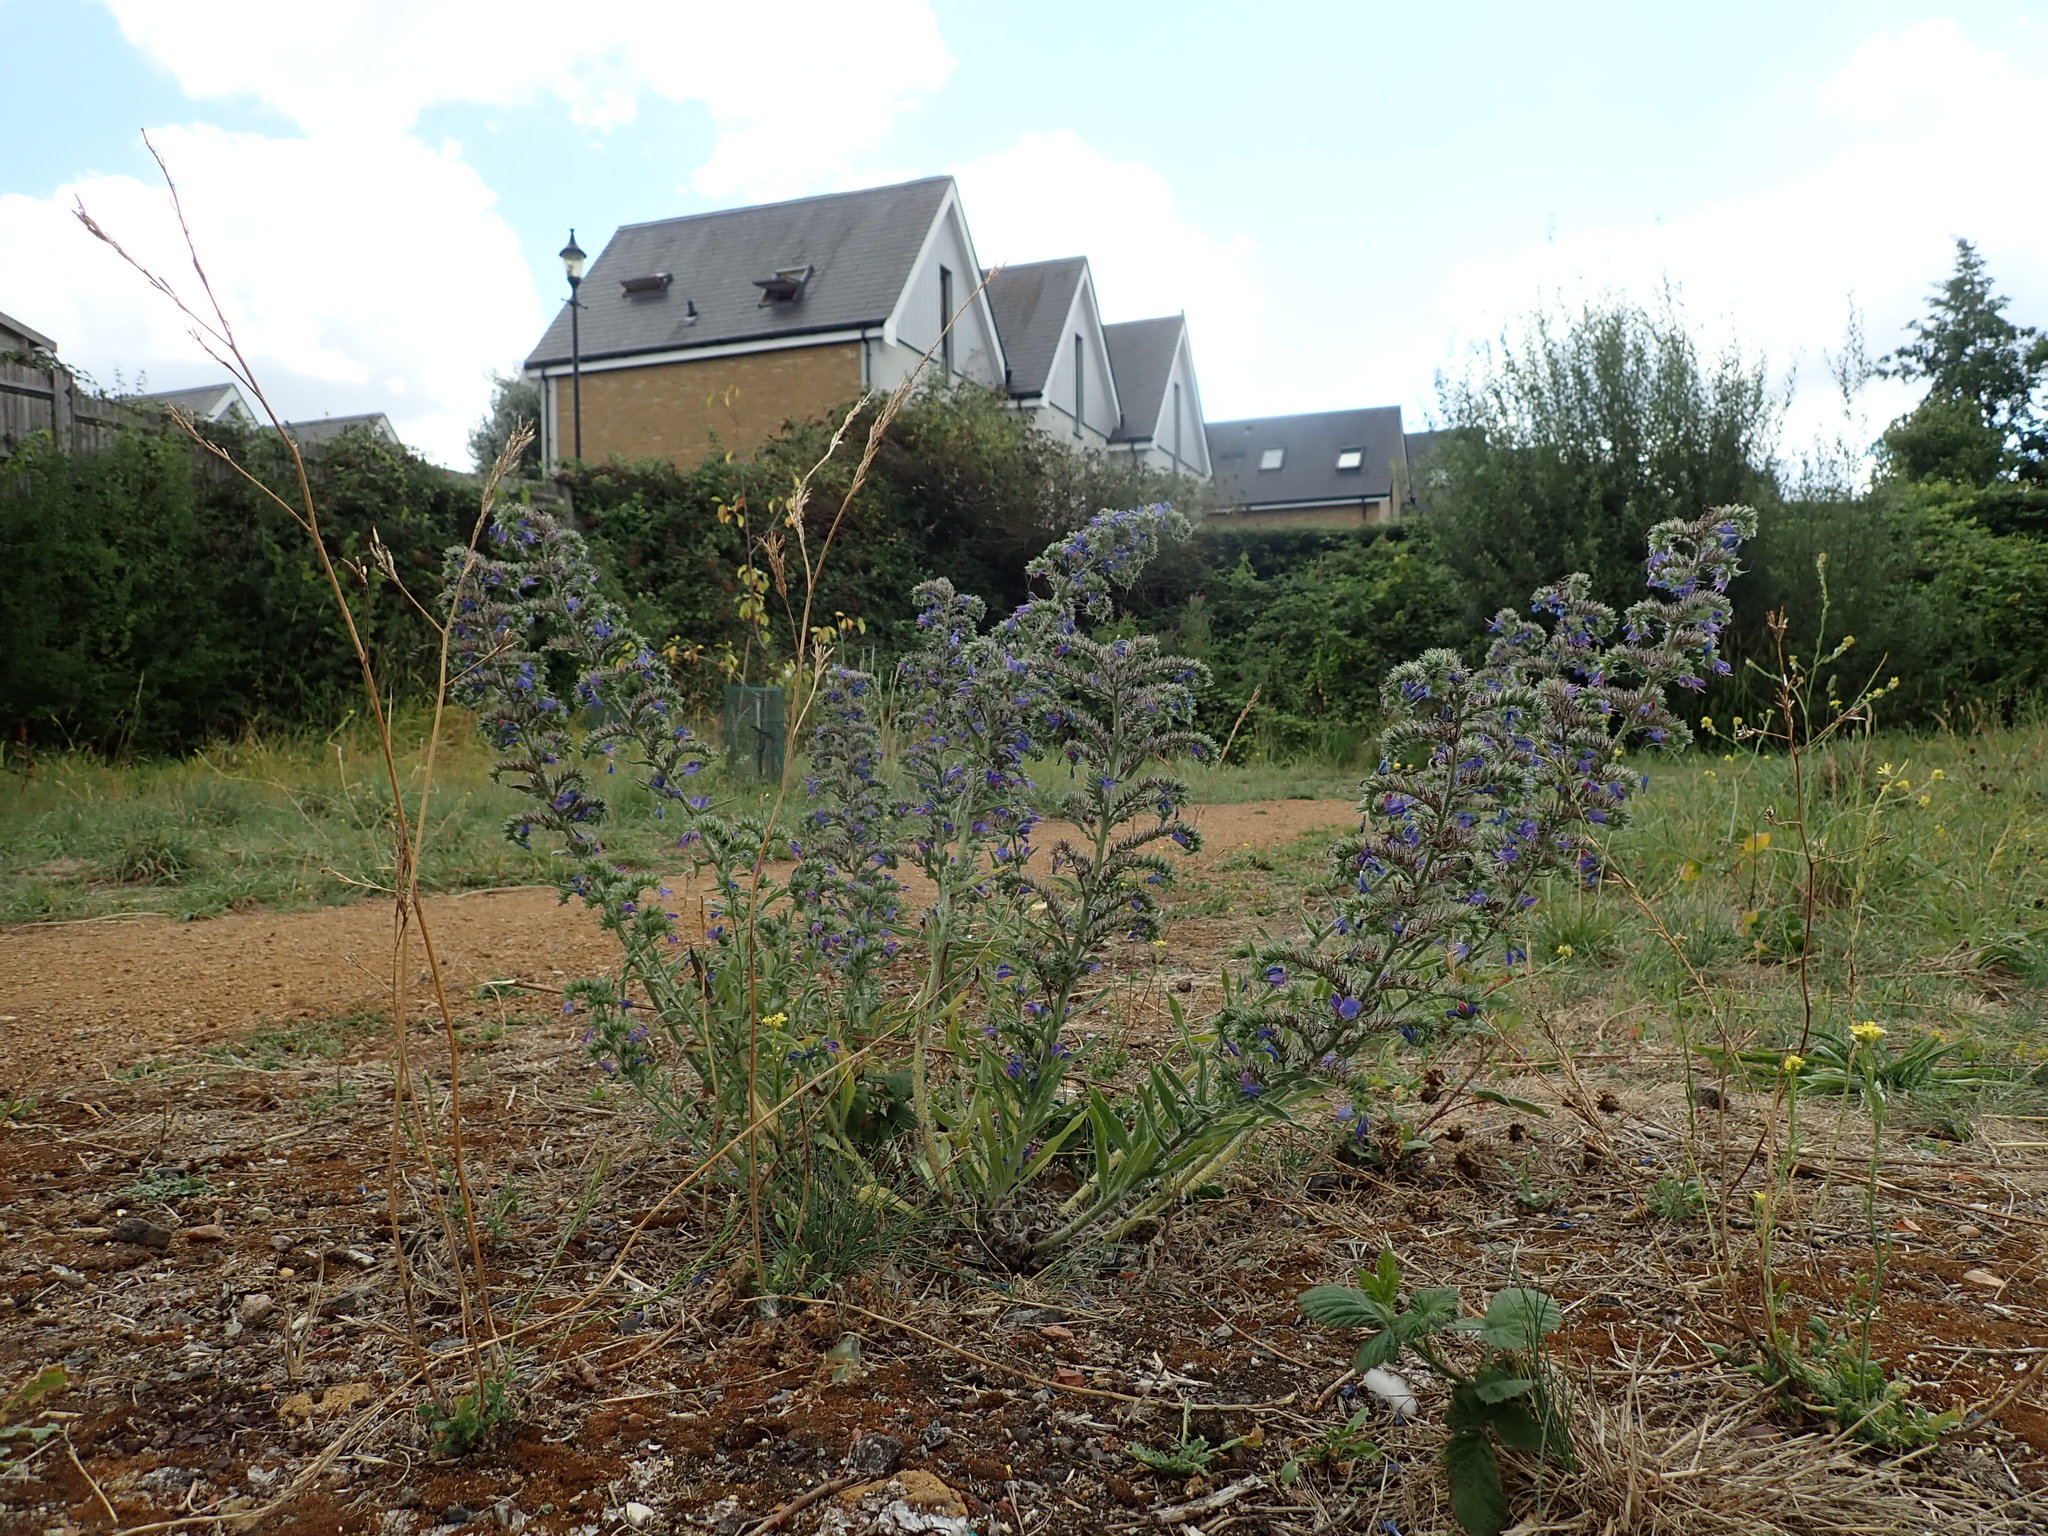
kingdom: Plantae
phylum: Tracheophyta
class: Magnoliopsida
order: Boraginales
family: Boraginaceae
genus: Echium
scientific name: Echium vulgare
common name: Common viper's bugloss
